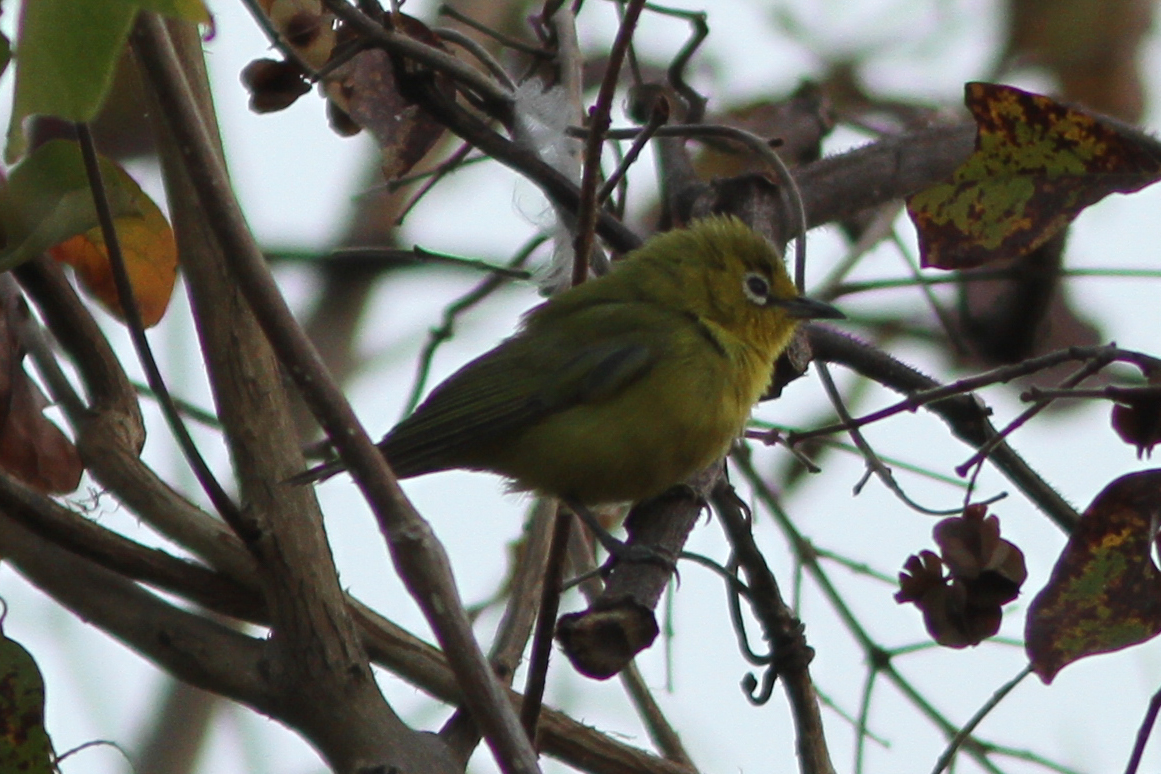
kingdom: Animalia
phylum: Chordata
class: Aves
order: Passeriformes
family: Zosteropidae
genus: Zosterops
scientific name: Zosterops senegalensis
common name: African yellow white-eye
